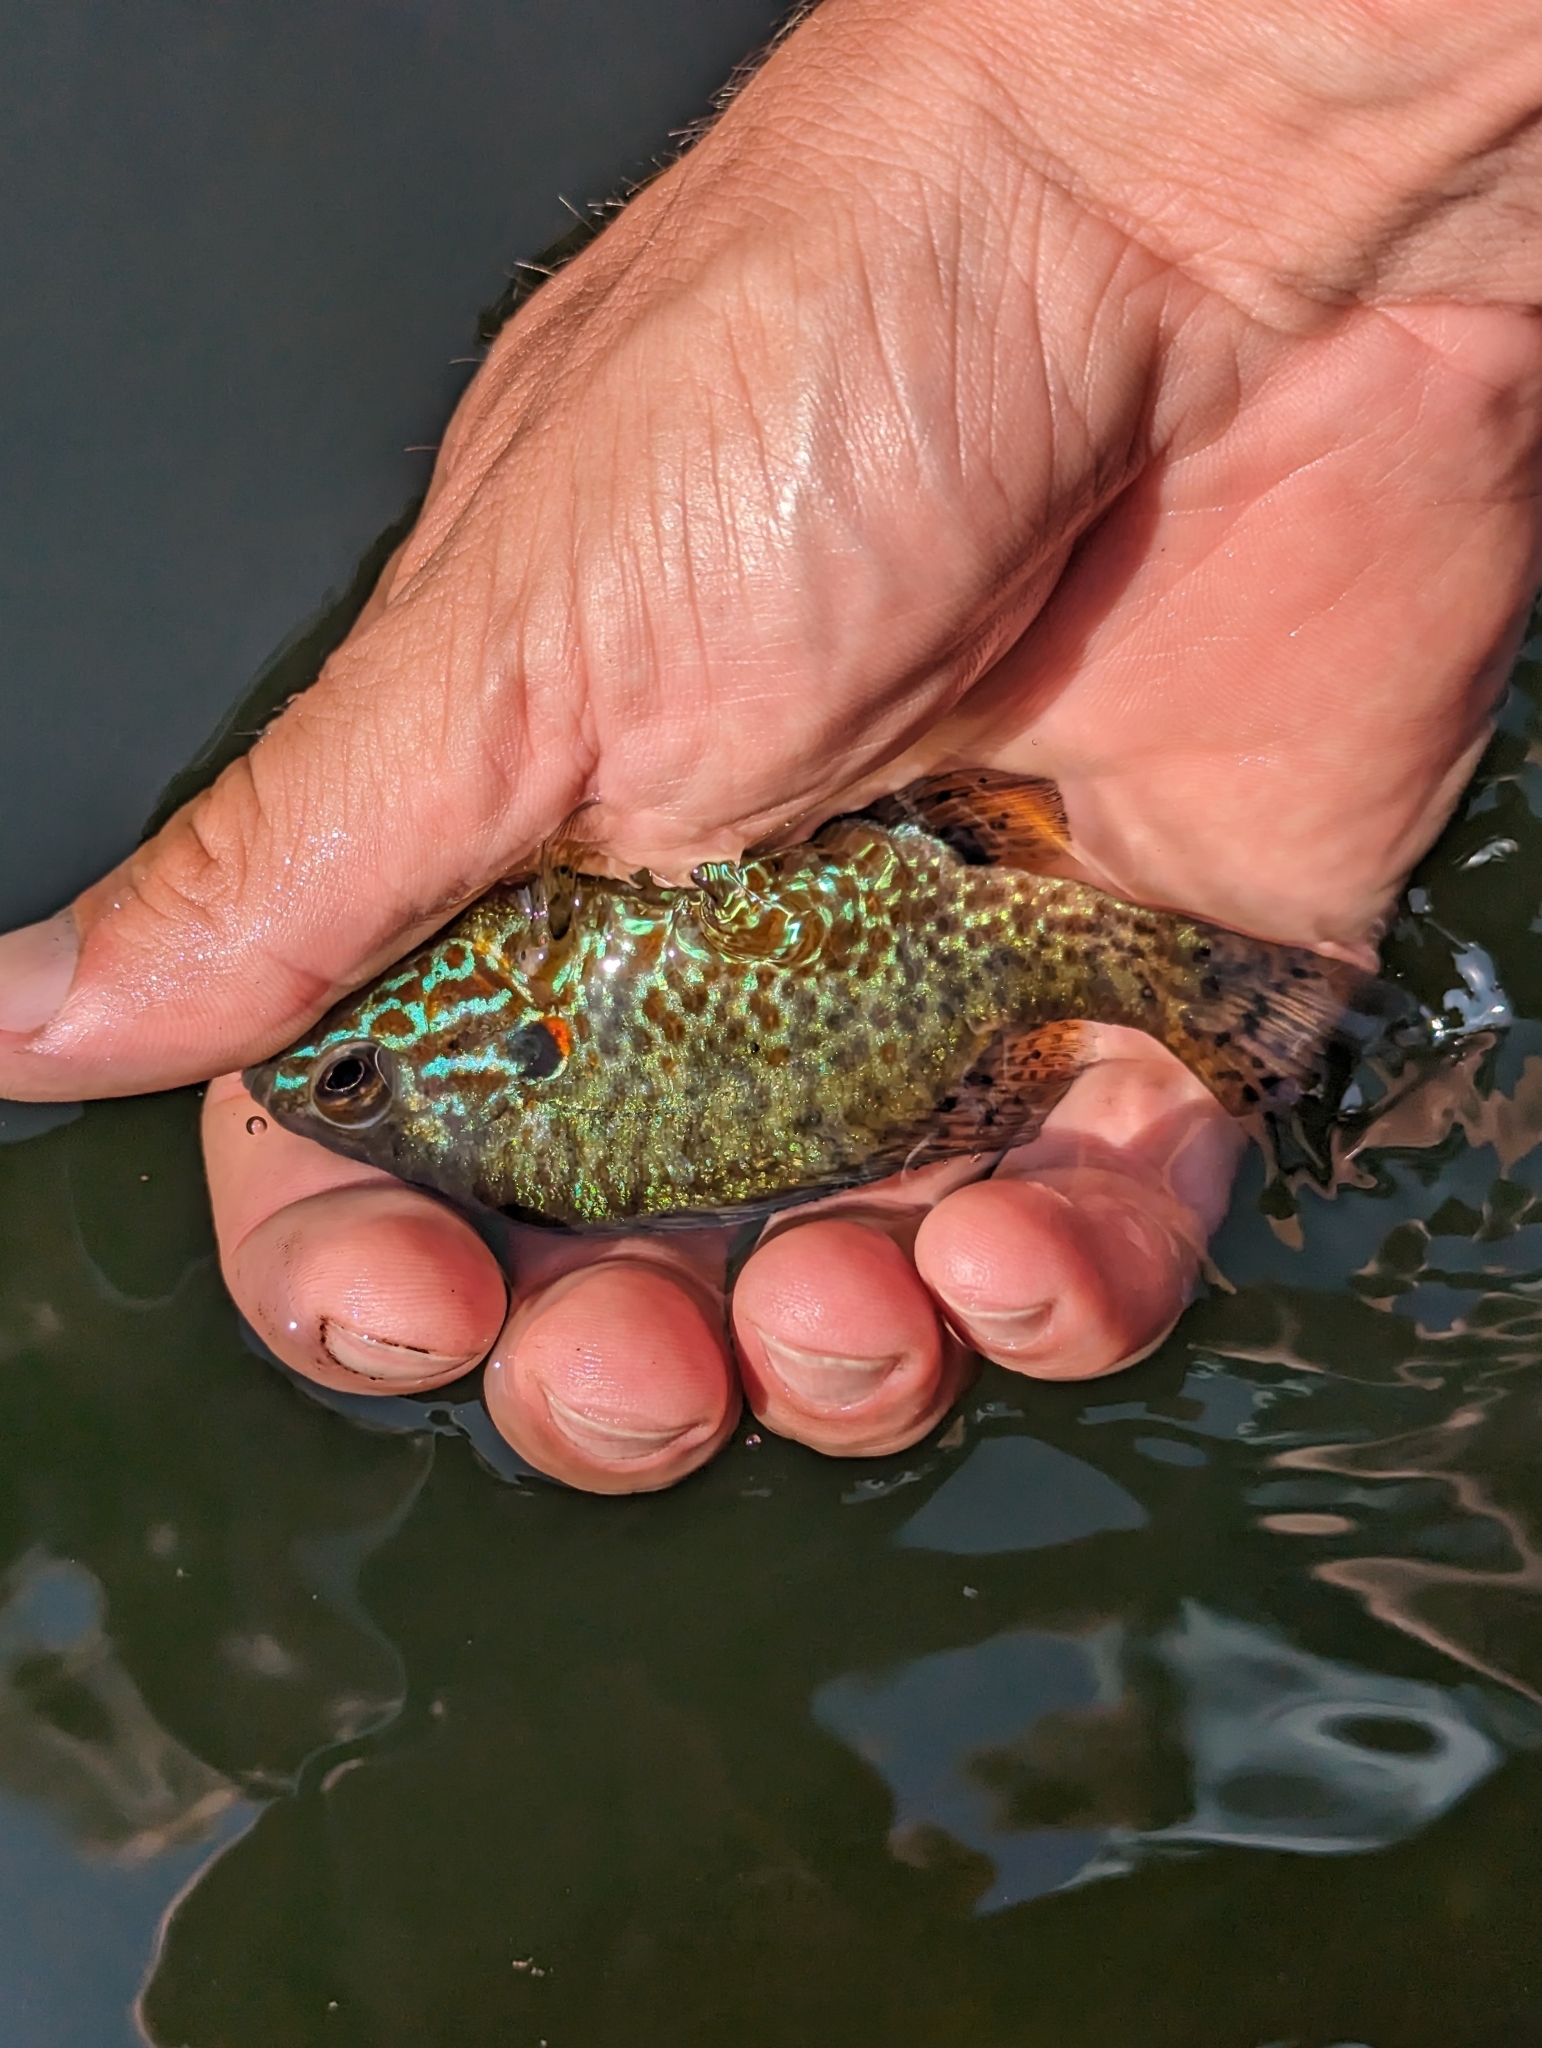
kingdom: Animalia
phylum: Chordata
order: Perciformes
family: Centrarchidae
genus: Lepomis
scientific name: Lepomis gibbosus
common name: Pumpkinseed
